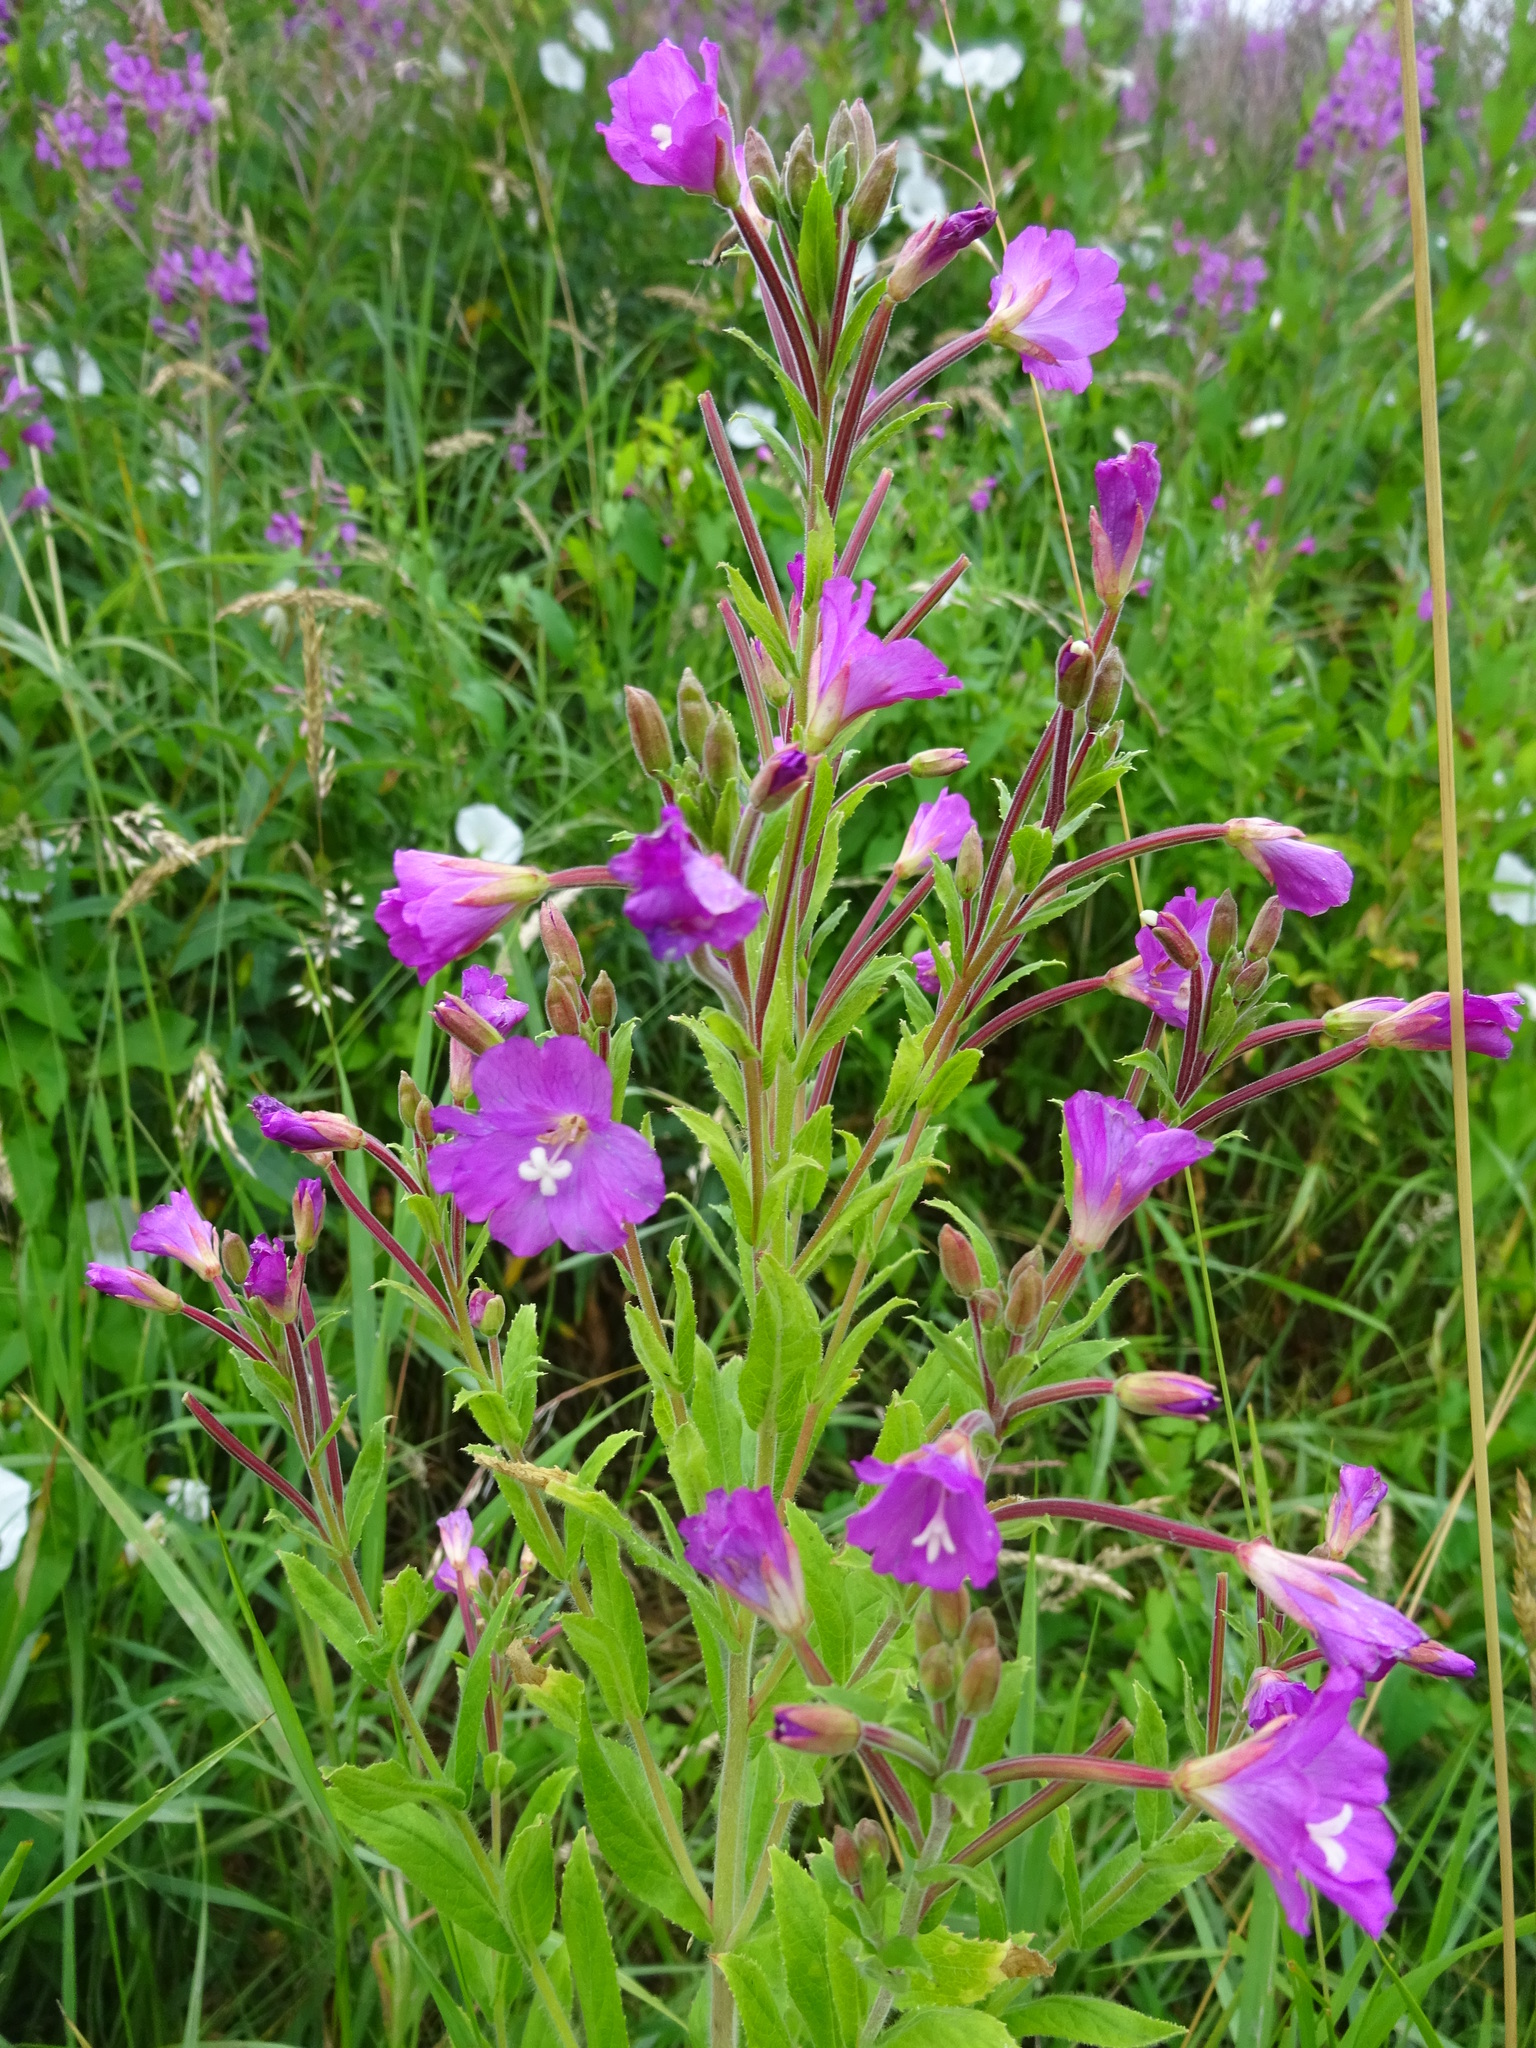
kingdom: Plantae
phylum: Tracheophyta
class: Magnoliopsida
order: Myrtales
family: Onagraceae
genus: Epilobium
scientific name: Epilobium hirsutum
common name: Great willowherb
